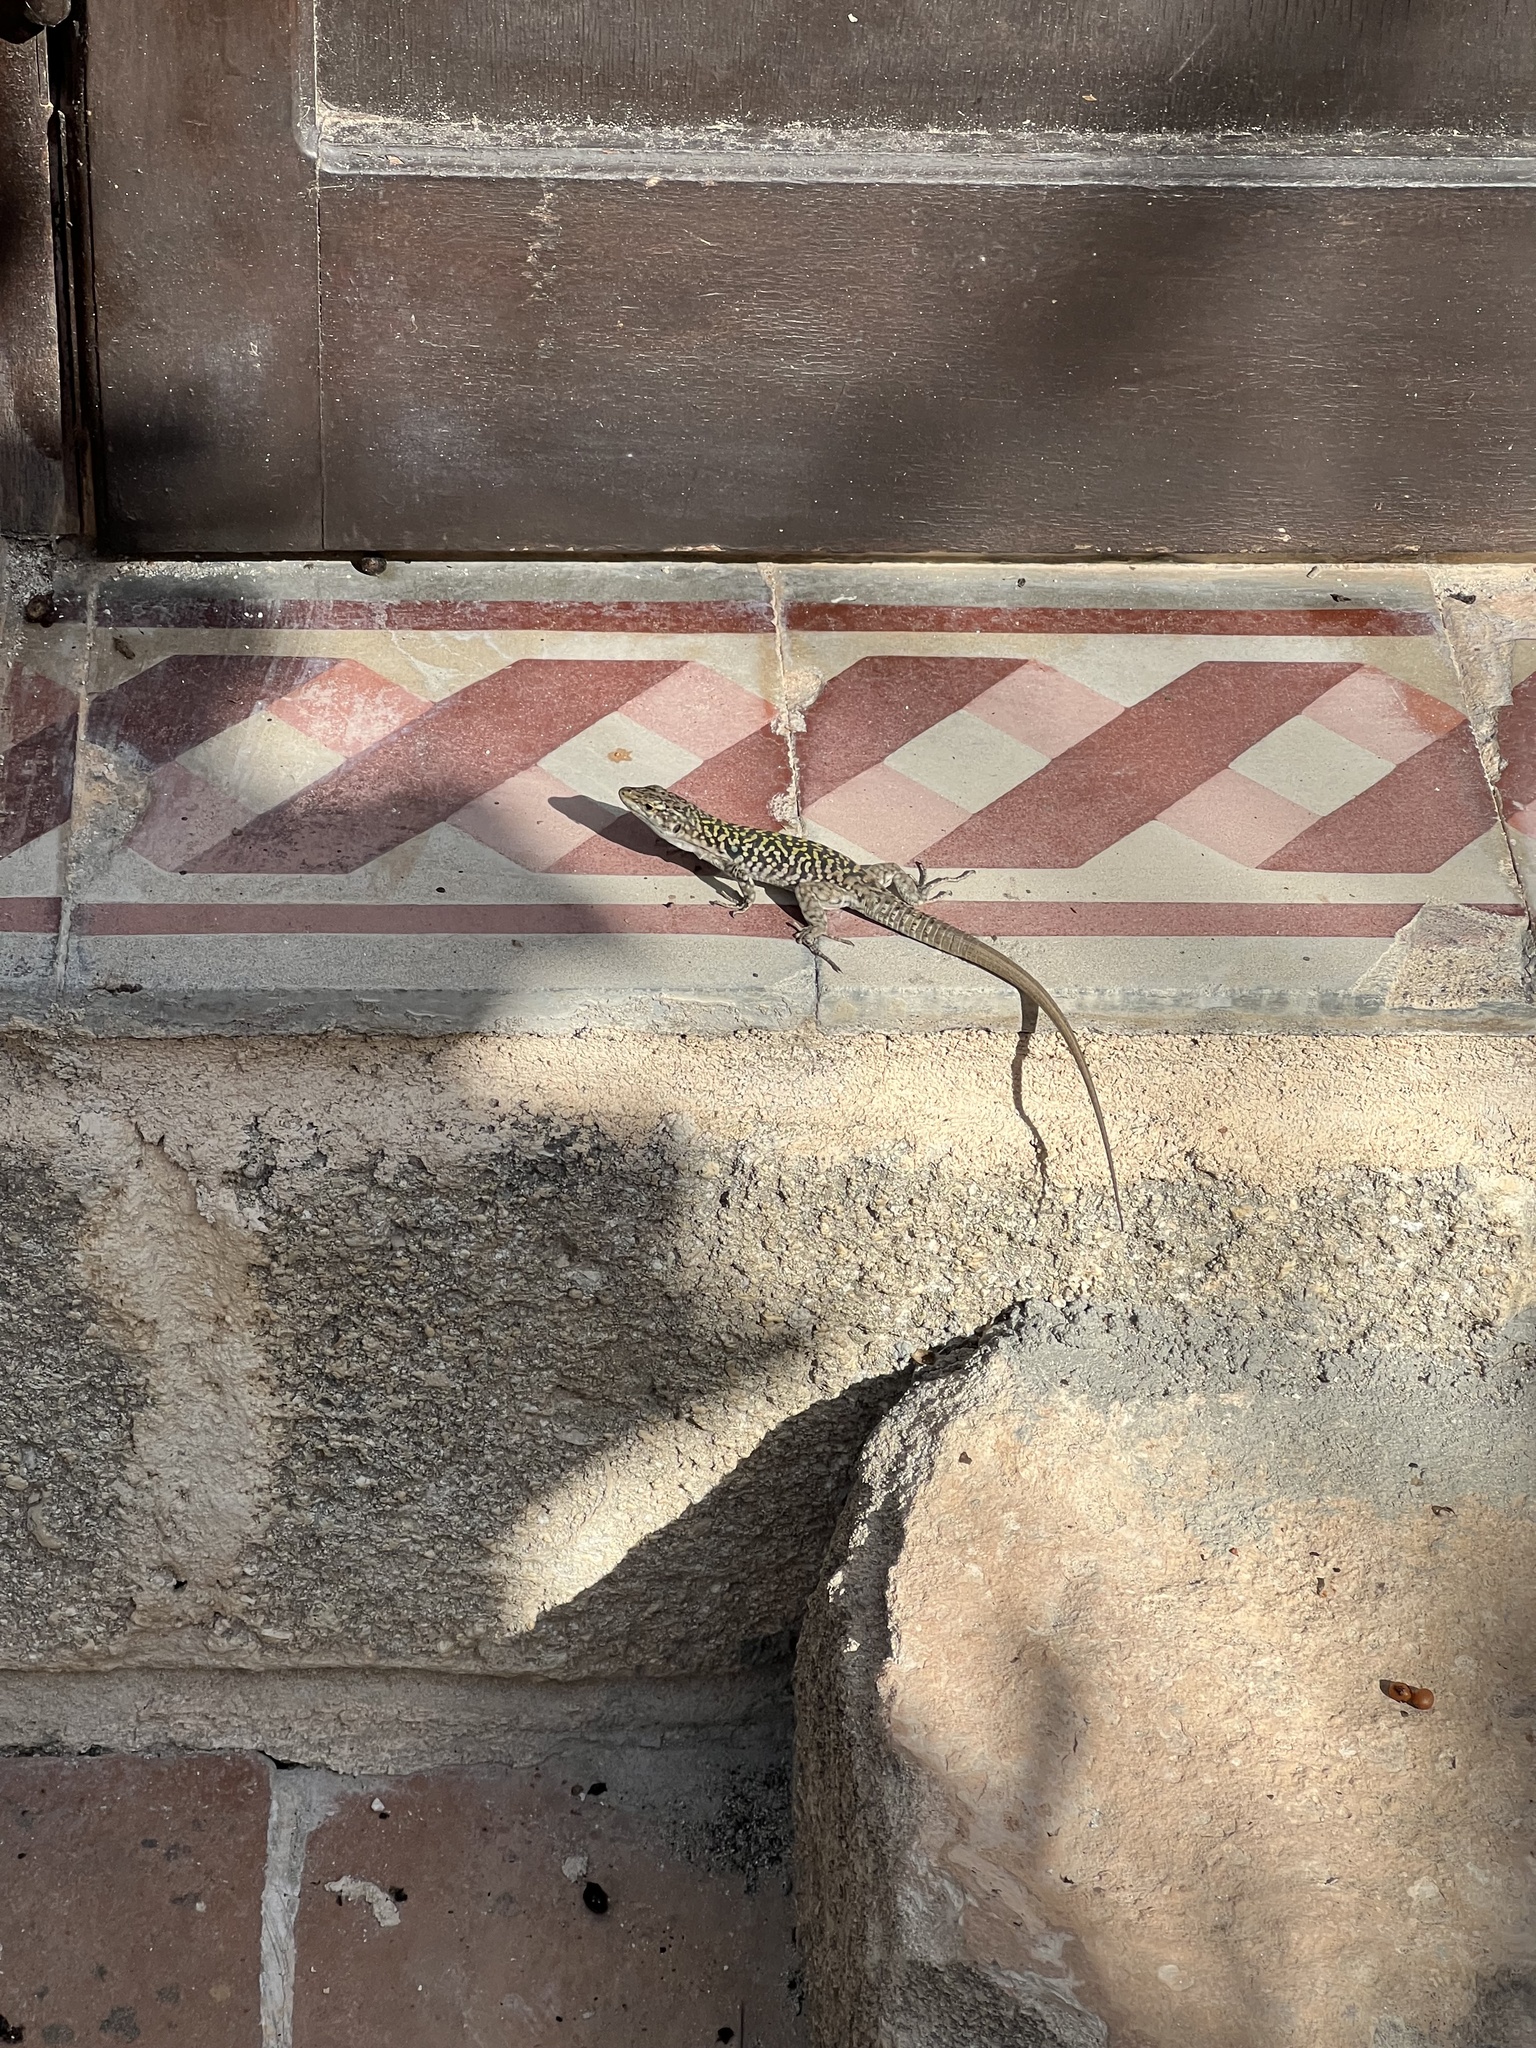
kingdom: Animalia
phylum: Chordata
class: Squamata
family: Lacertidae
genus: Podarcis
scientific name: Podarcis siculus
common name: Italian wall lizard
